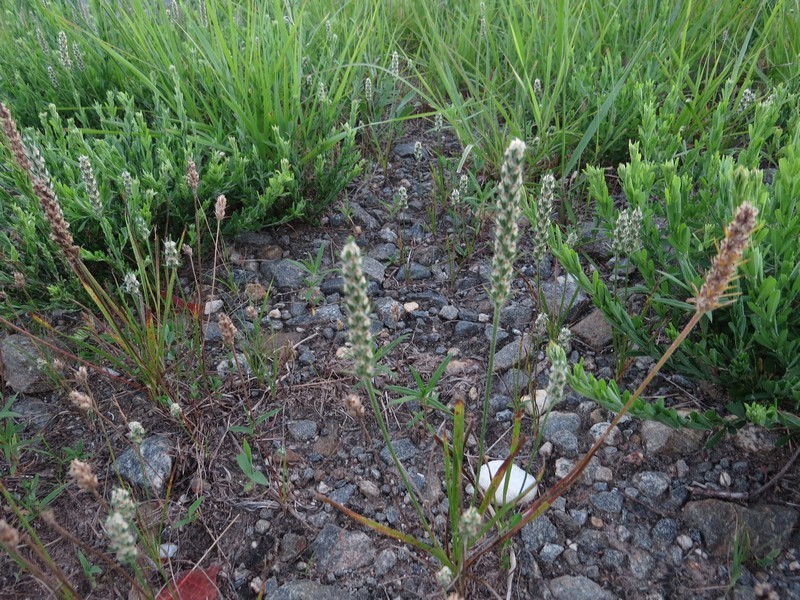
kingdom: Plantae
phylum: Tracheophyta
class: Magnoliopsida
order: Lamiales
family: Plantaginaceae
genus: Plantago
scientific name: Plantago aristata
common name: Bracted plantain
